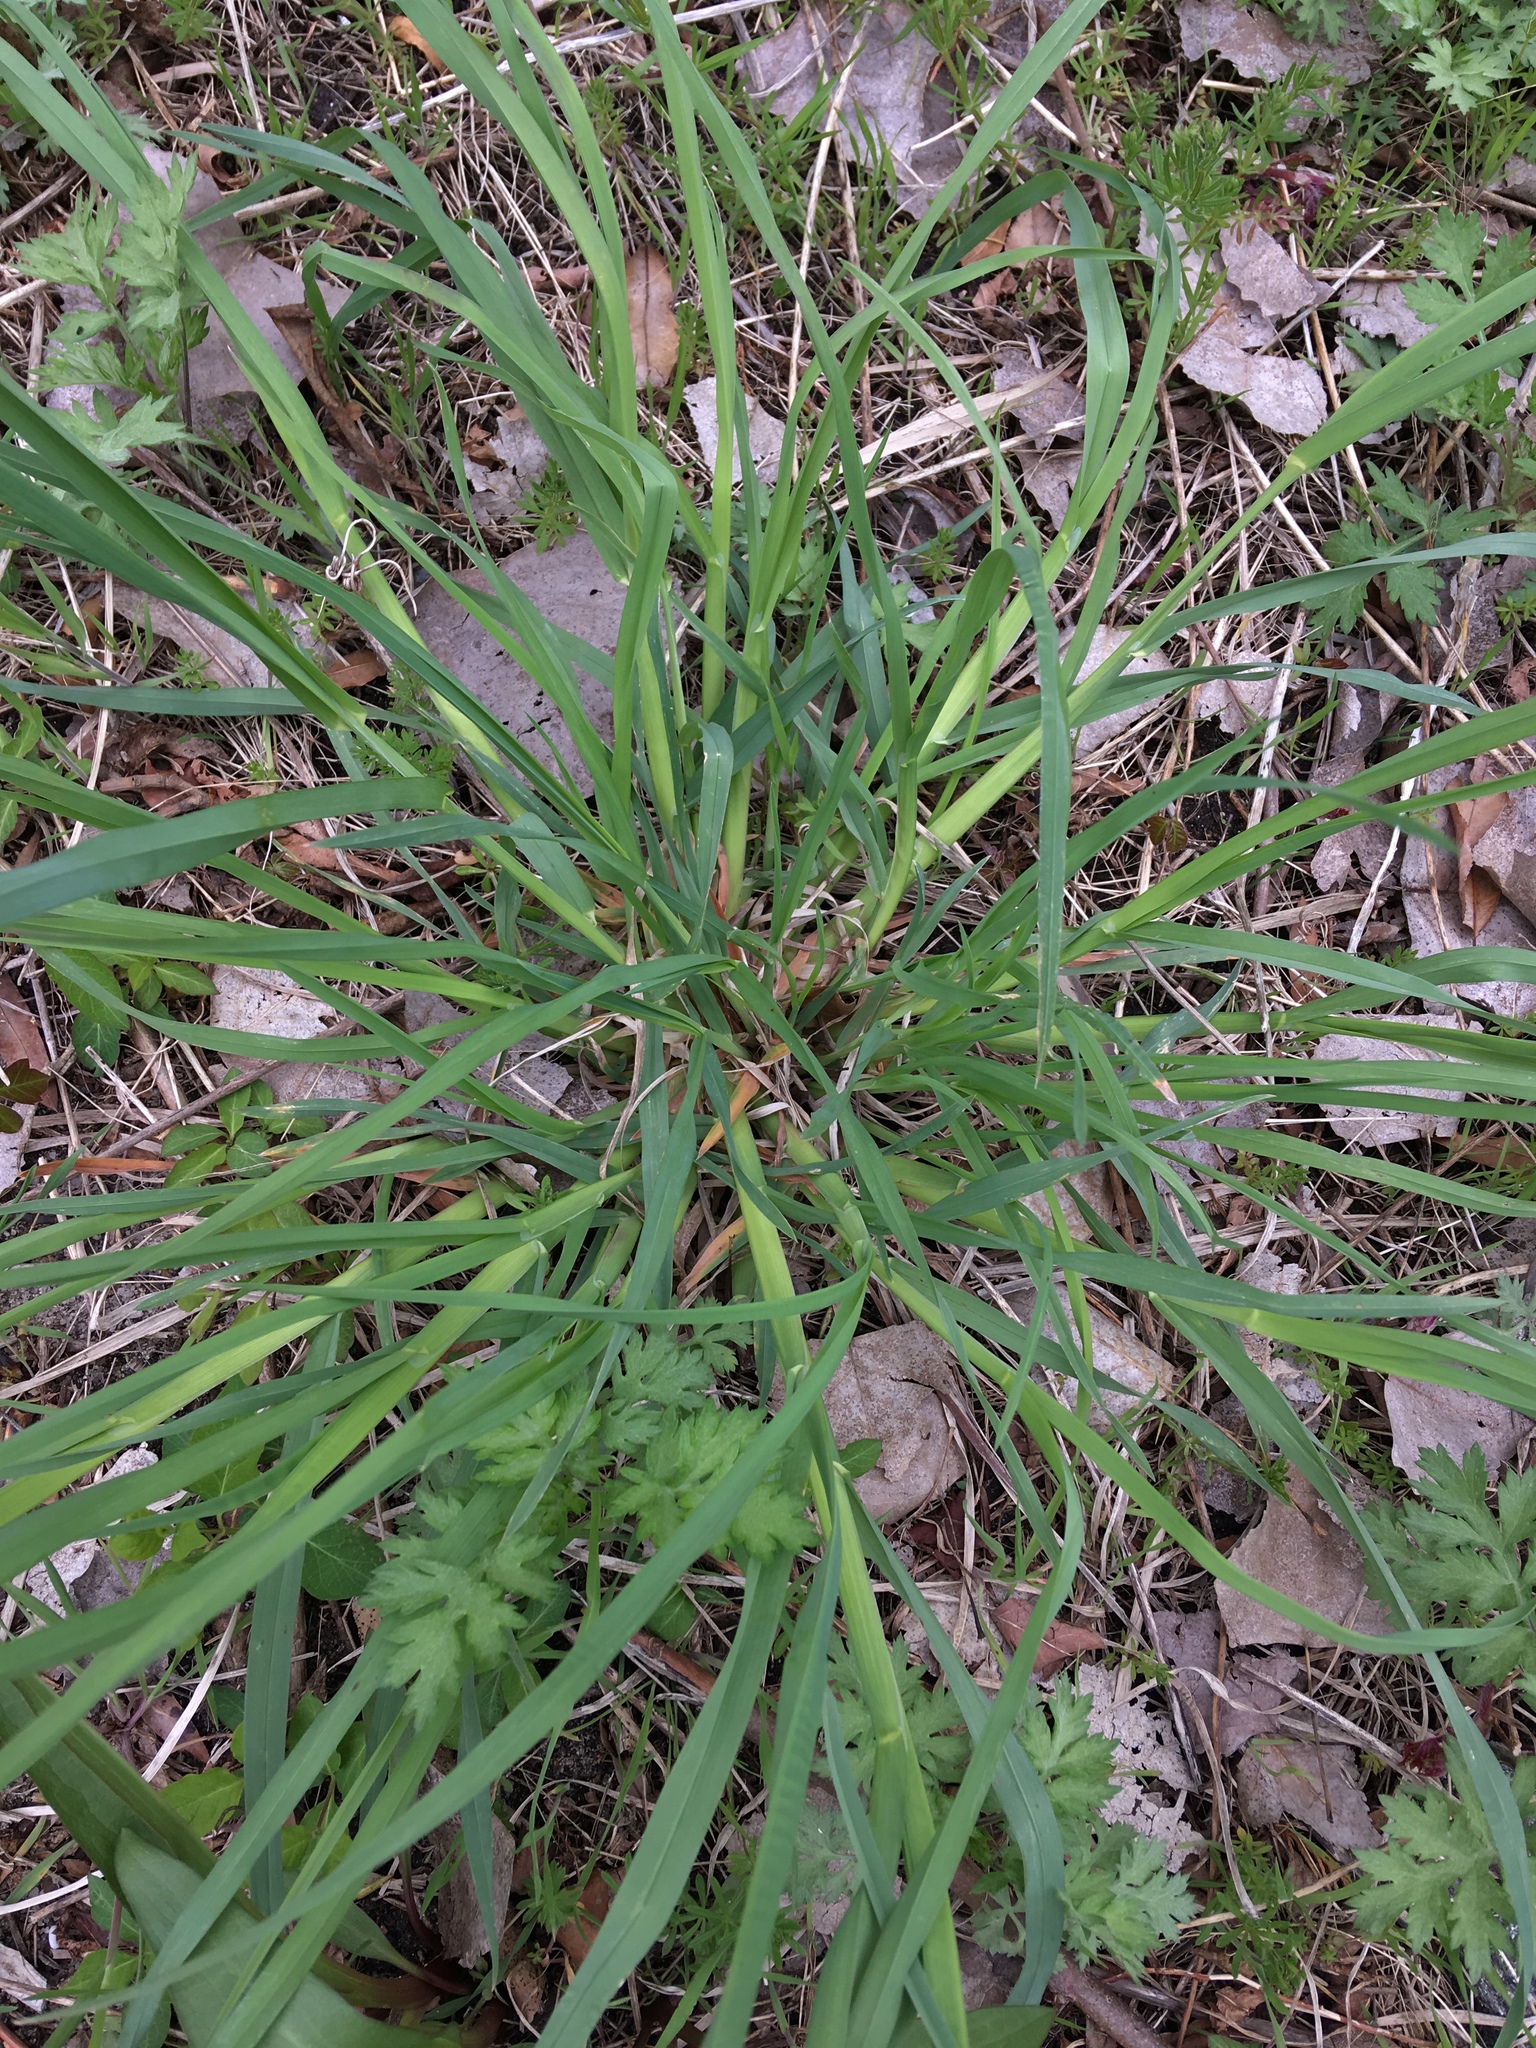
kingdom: Plantae
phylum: Tracheophyta
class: Liliopsida
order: Poales
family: Poaceae
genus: Dactylis
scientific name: Dactylis glomerata
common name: Orchardgrass
